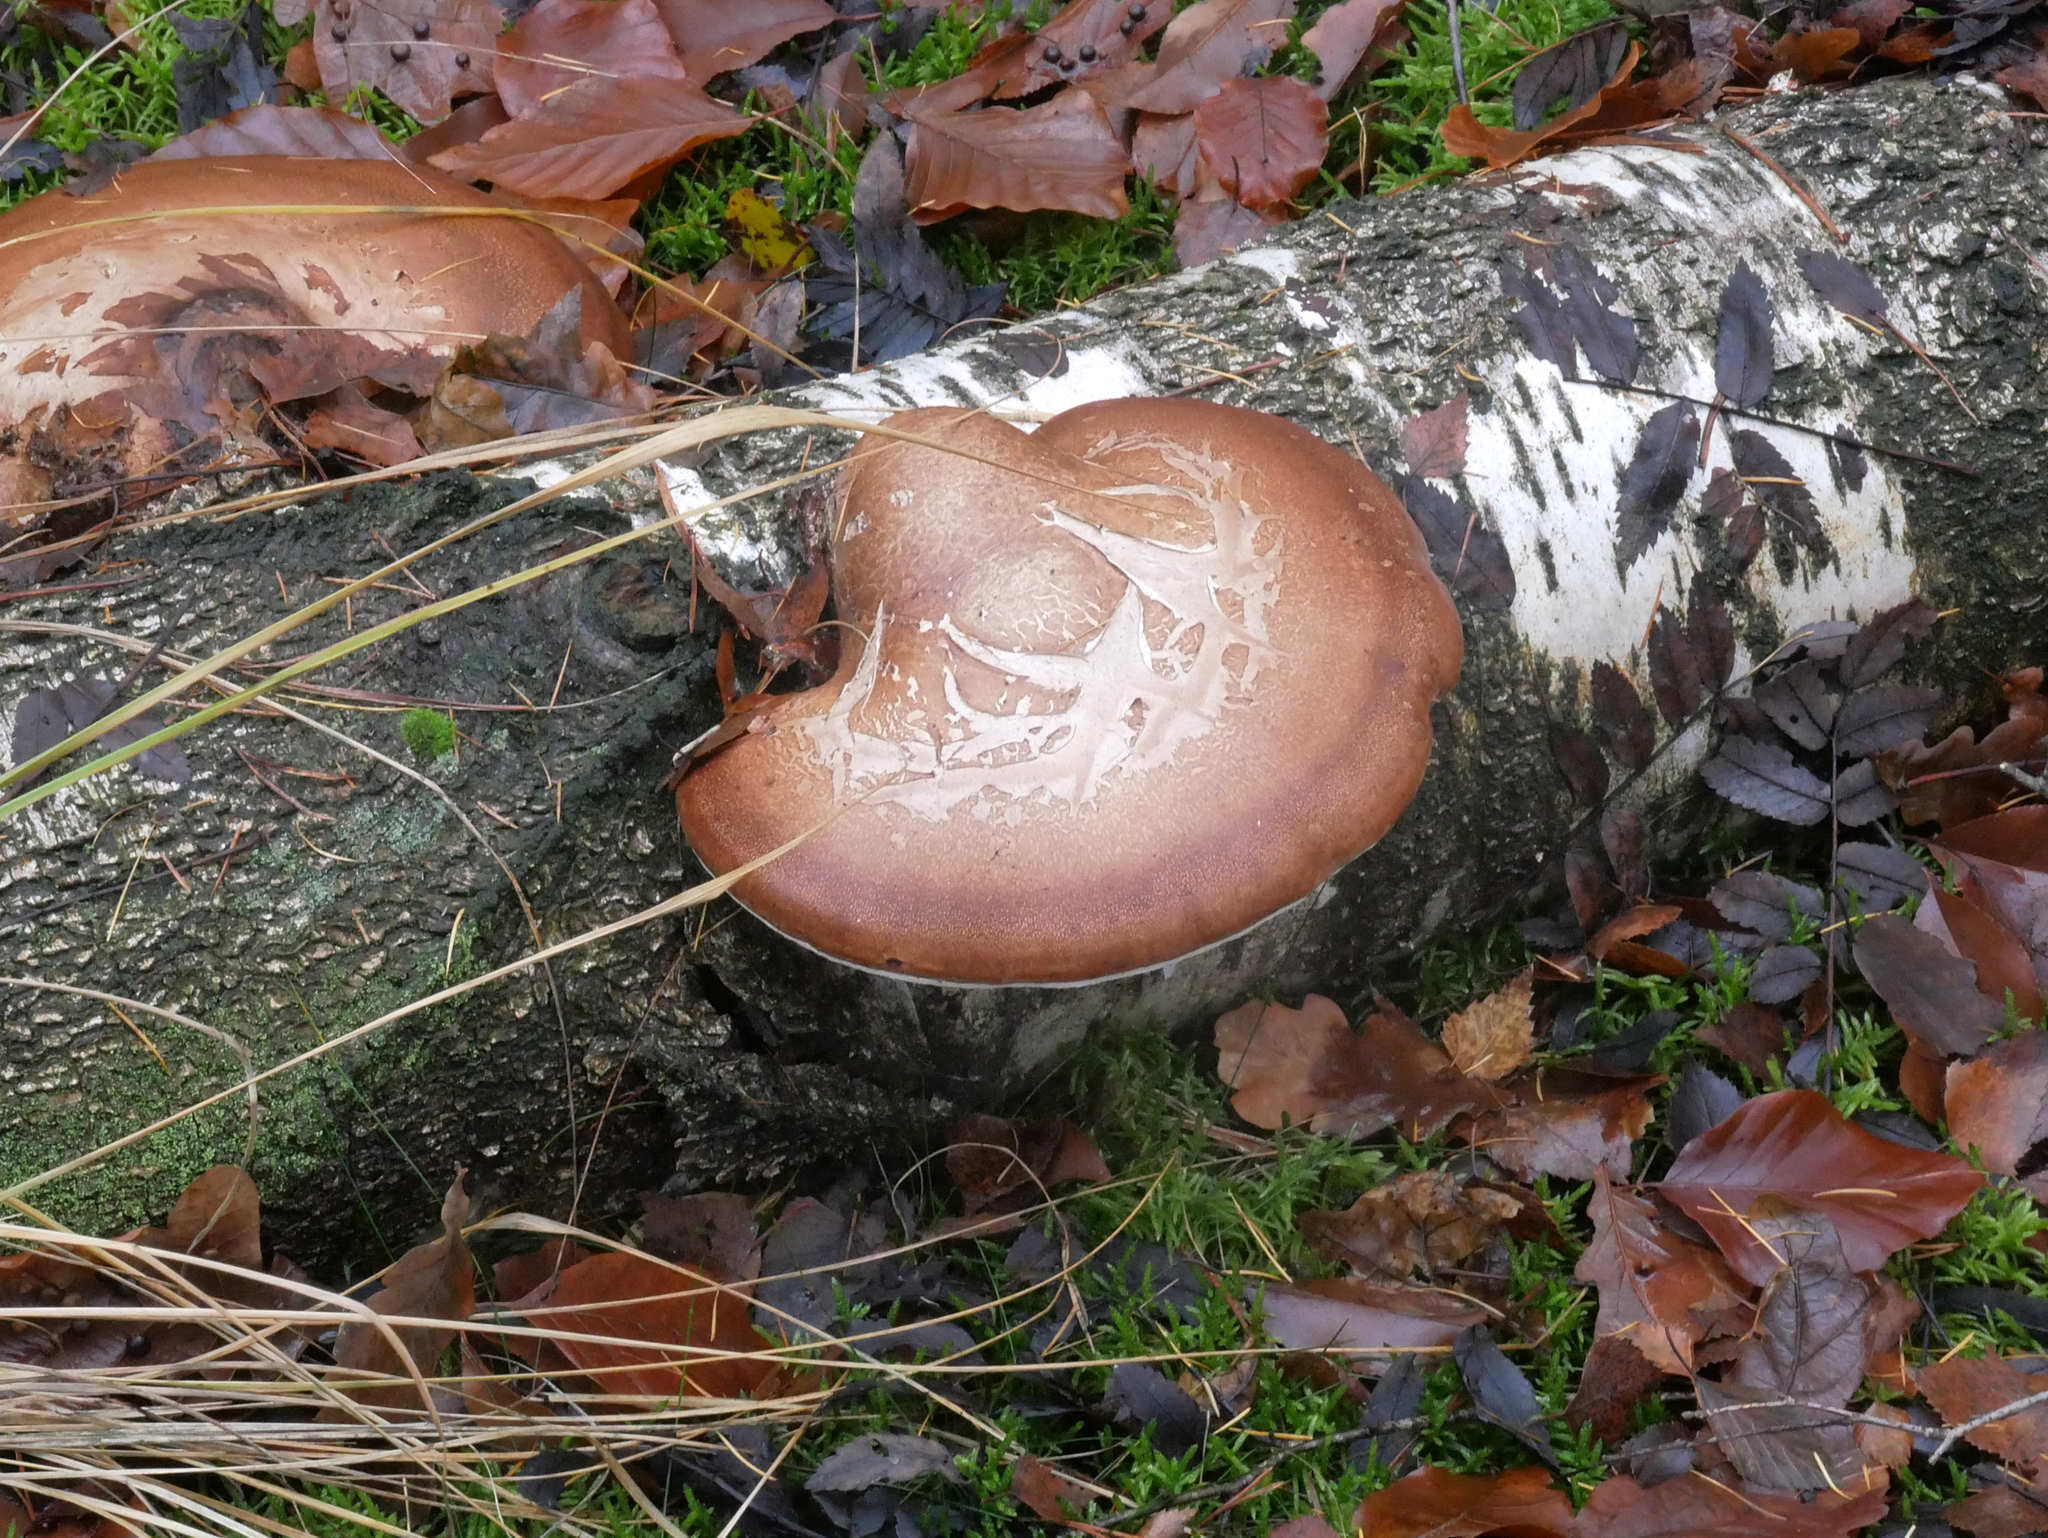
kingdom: Fungi
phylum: Basidiomycota
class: Agaricomycetes
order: Polyporales
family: Fomitopsidaceae
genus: Fomitopsis
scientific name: Fomitopsis betulina
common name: Birch polypore
